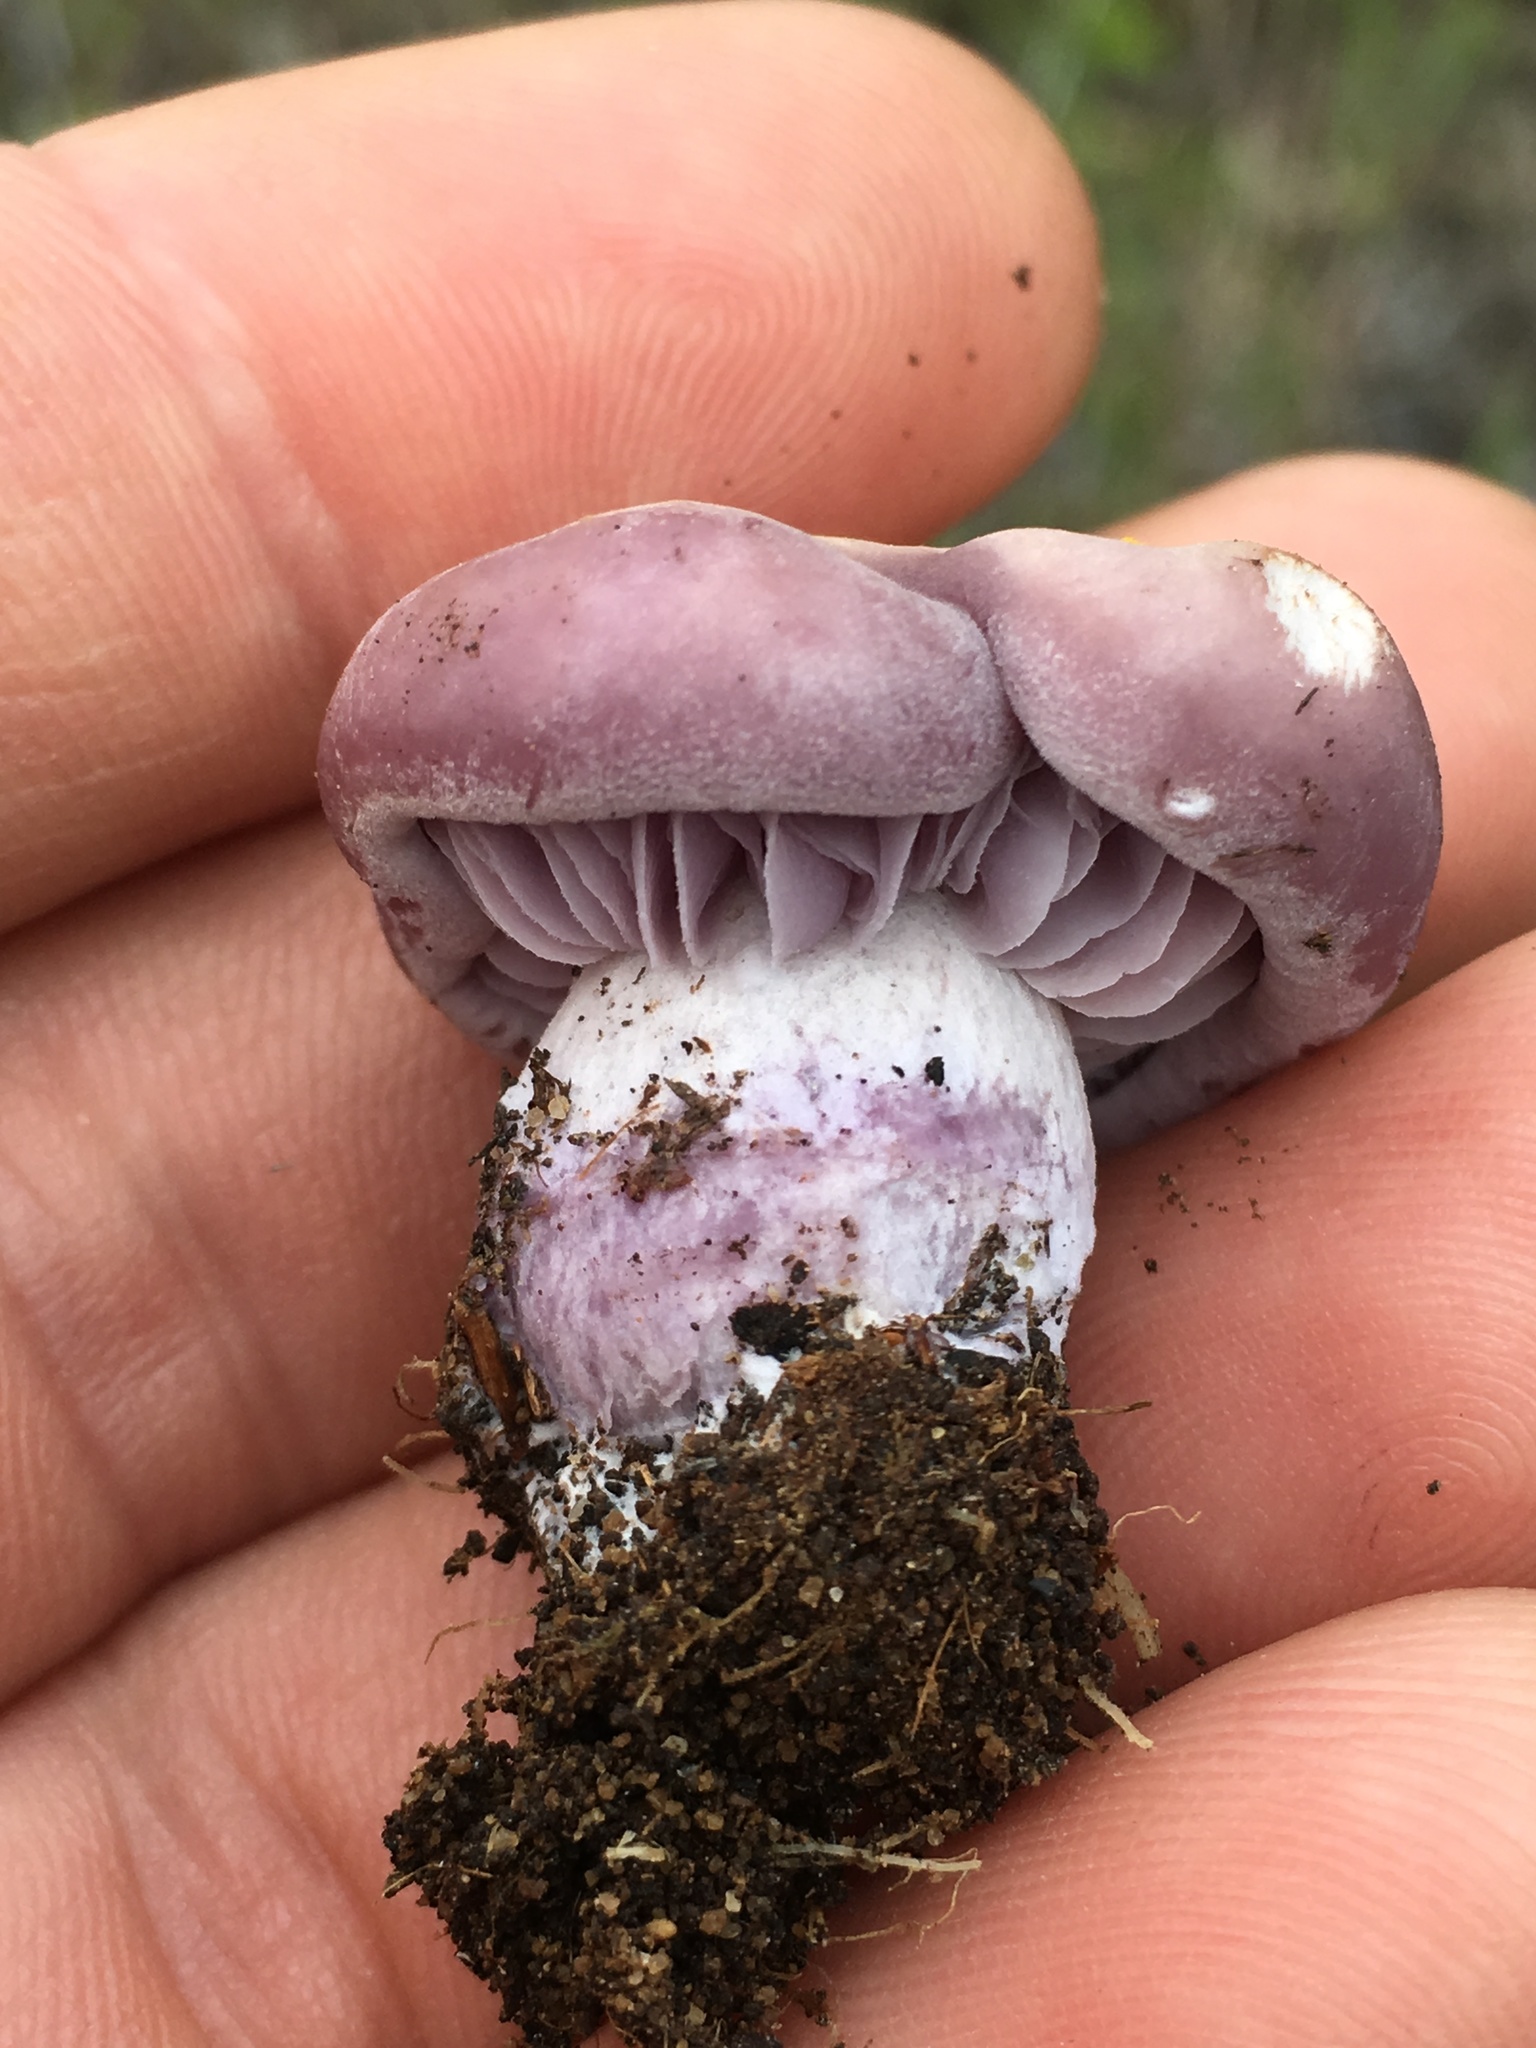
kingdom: Fungi
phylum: Basidiomycota
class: Agaricomycetes
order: Agaricales
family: Tricholomataceae
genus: Collybia
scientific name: Collybia
